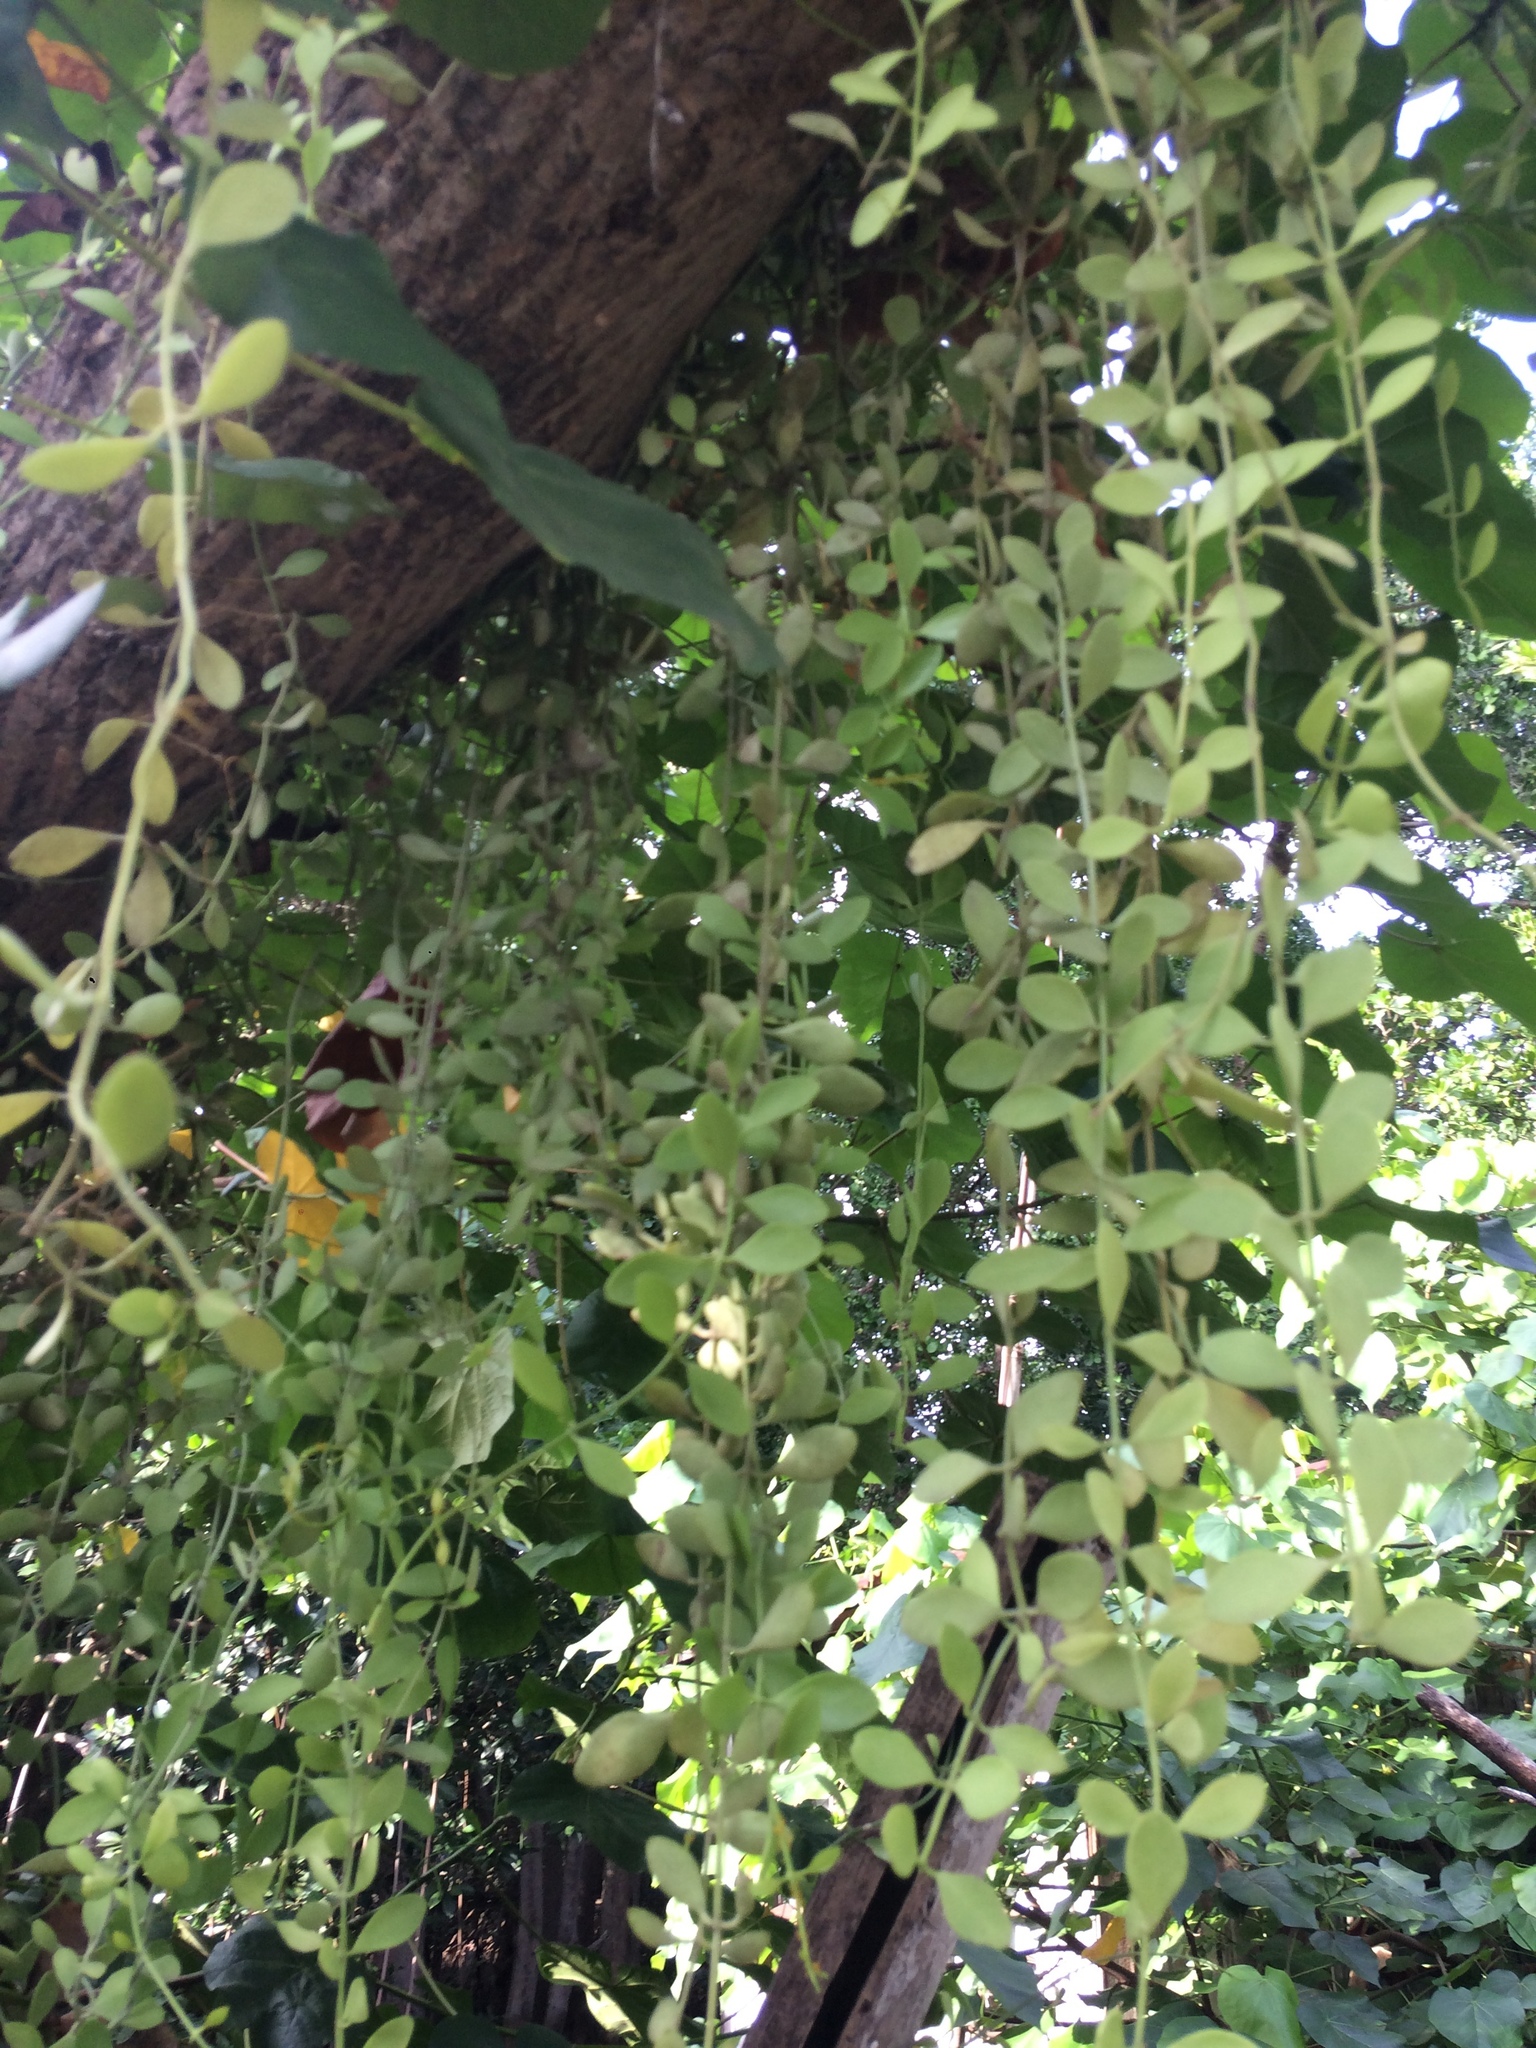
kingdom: Plantae
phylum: Tracheophyta
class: Magnoliopsida
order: Gentianales
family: Apocynaceae
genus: Dischidia
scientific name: Dischidia oiantha
